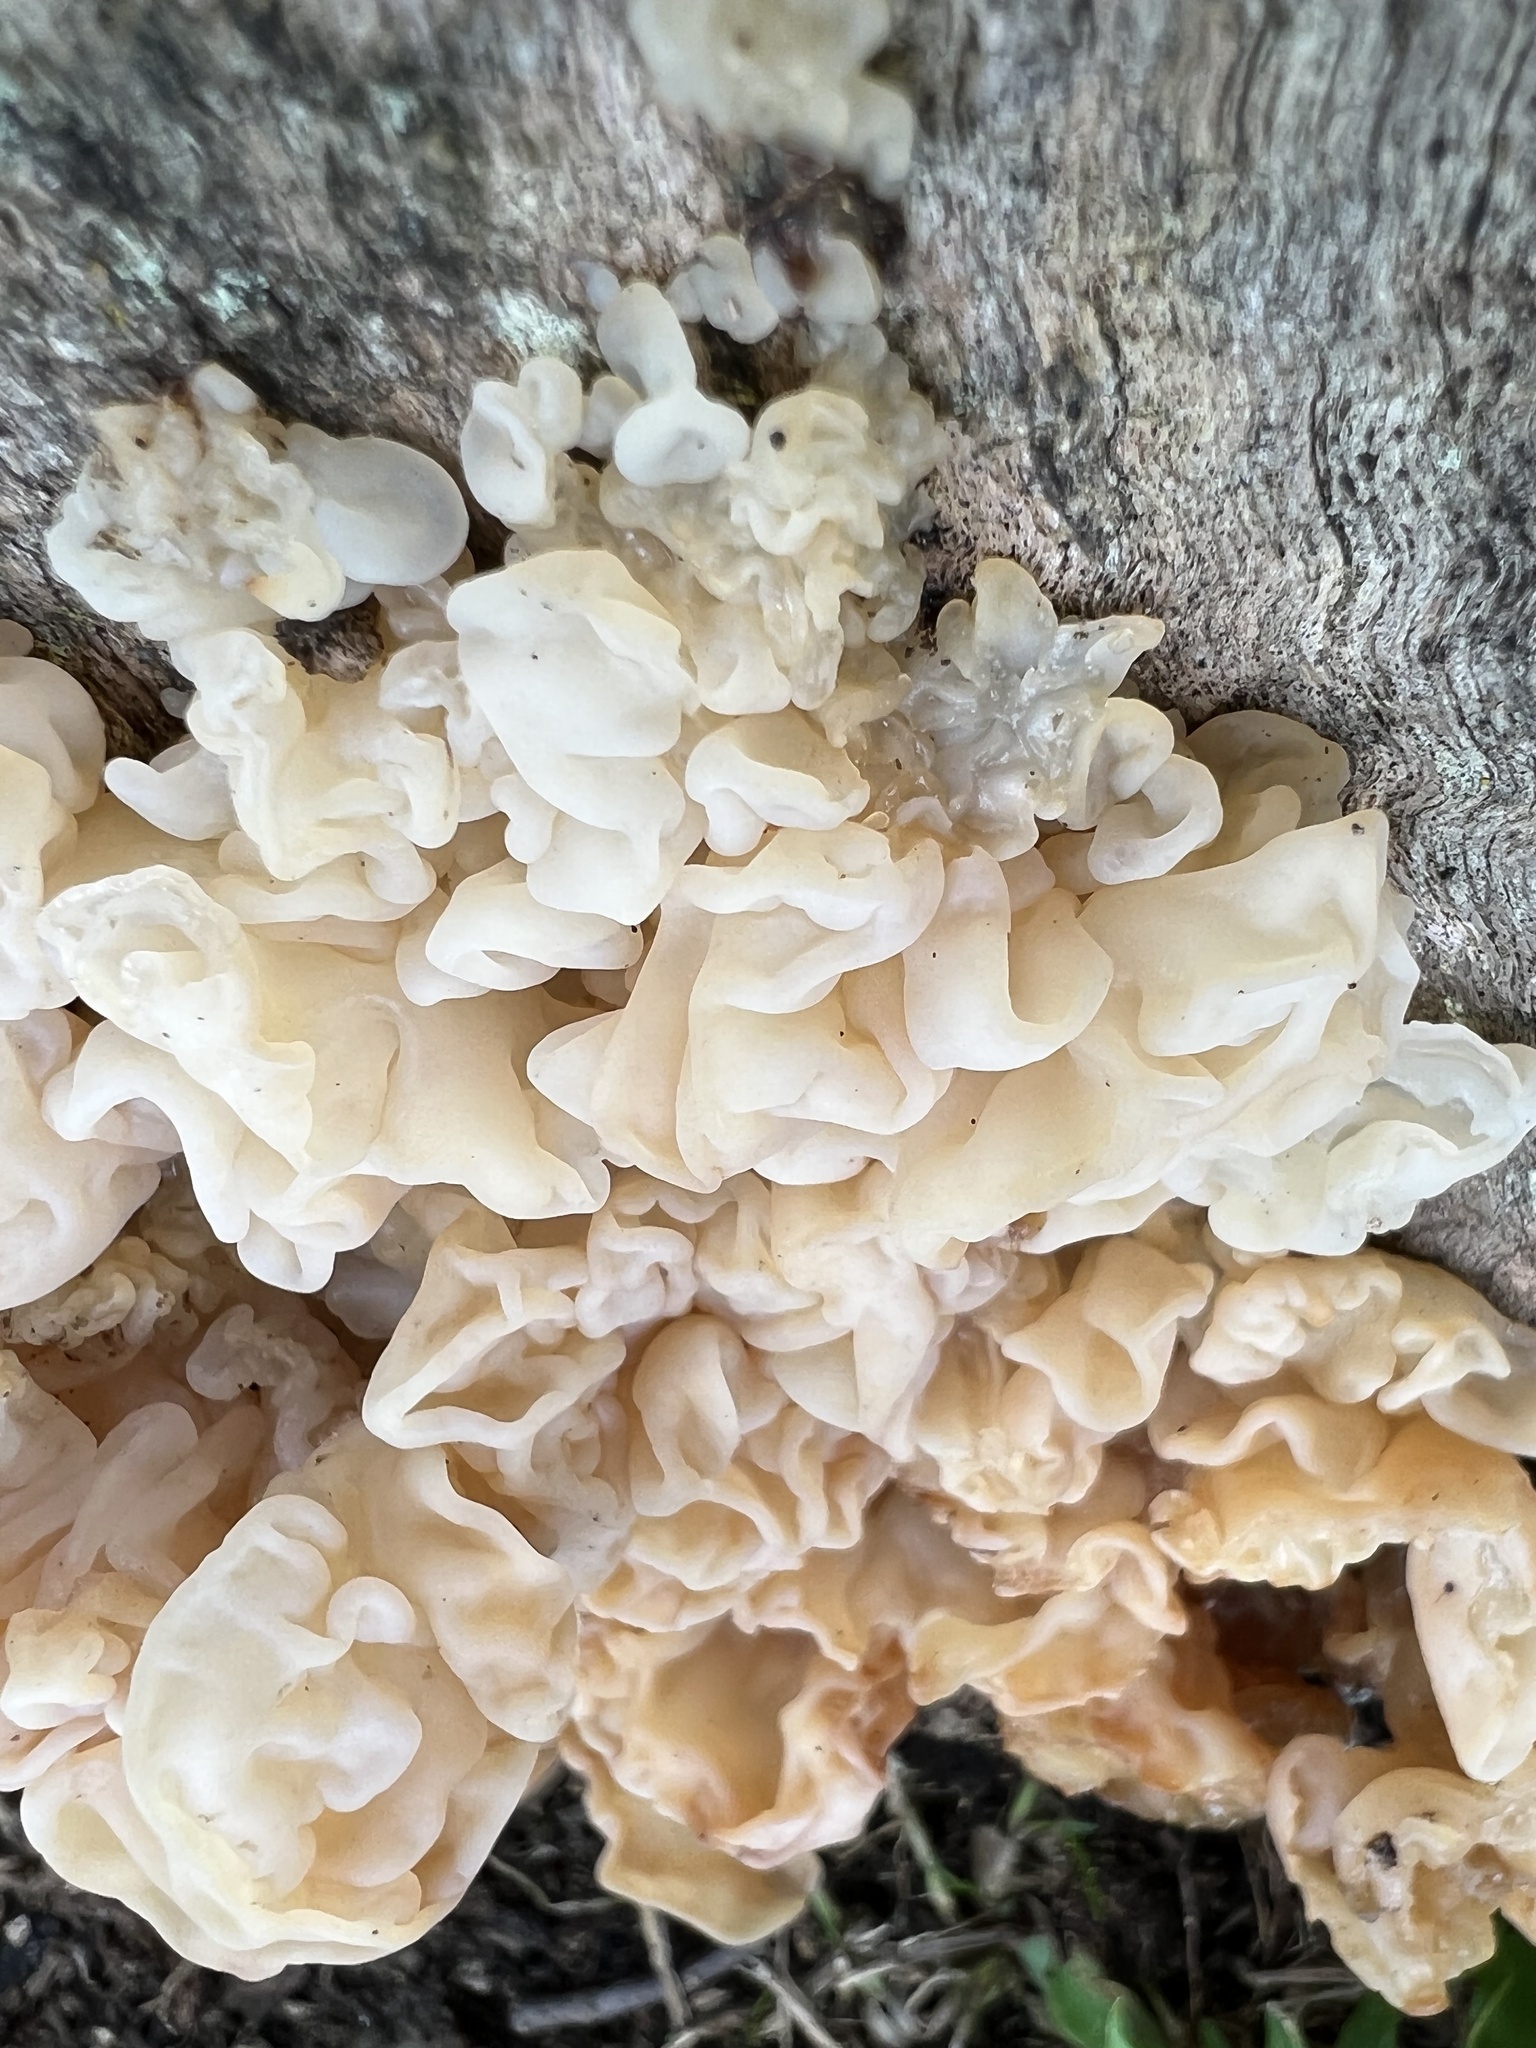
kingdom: Fungi
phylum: Basidiomycota
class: Agaricomycetes
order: Auriculariales
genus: Ductifera
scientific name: Ductifera pululahuana
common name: White jelly fungus
